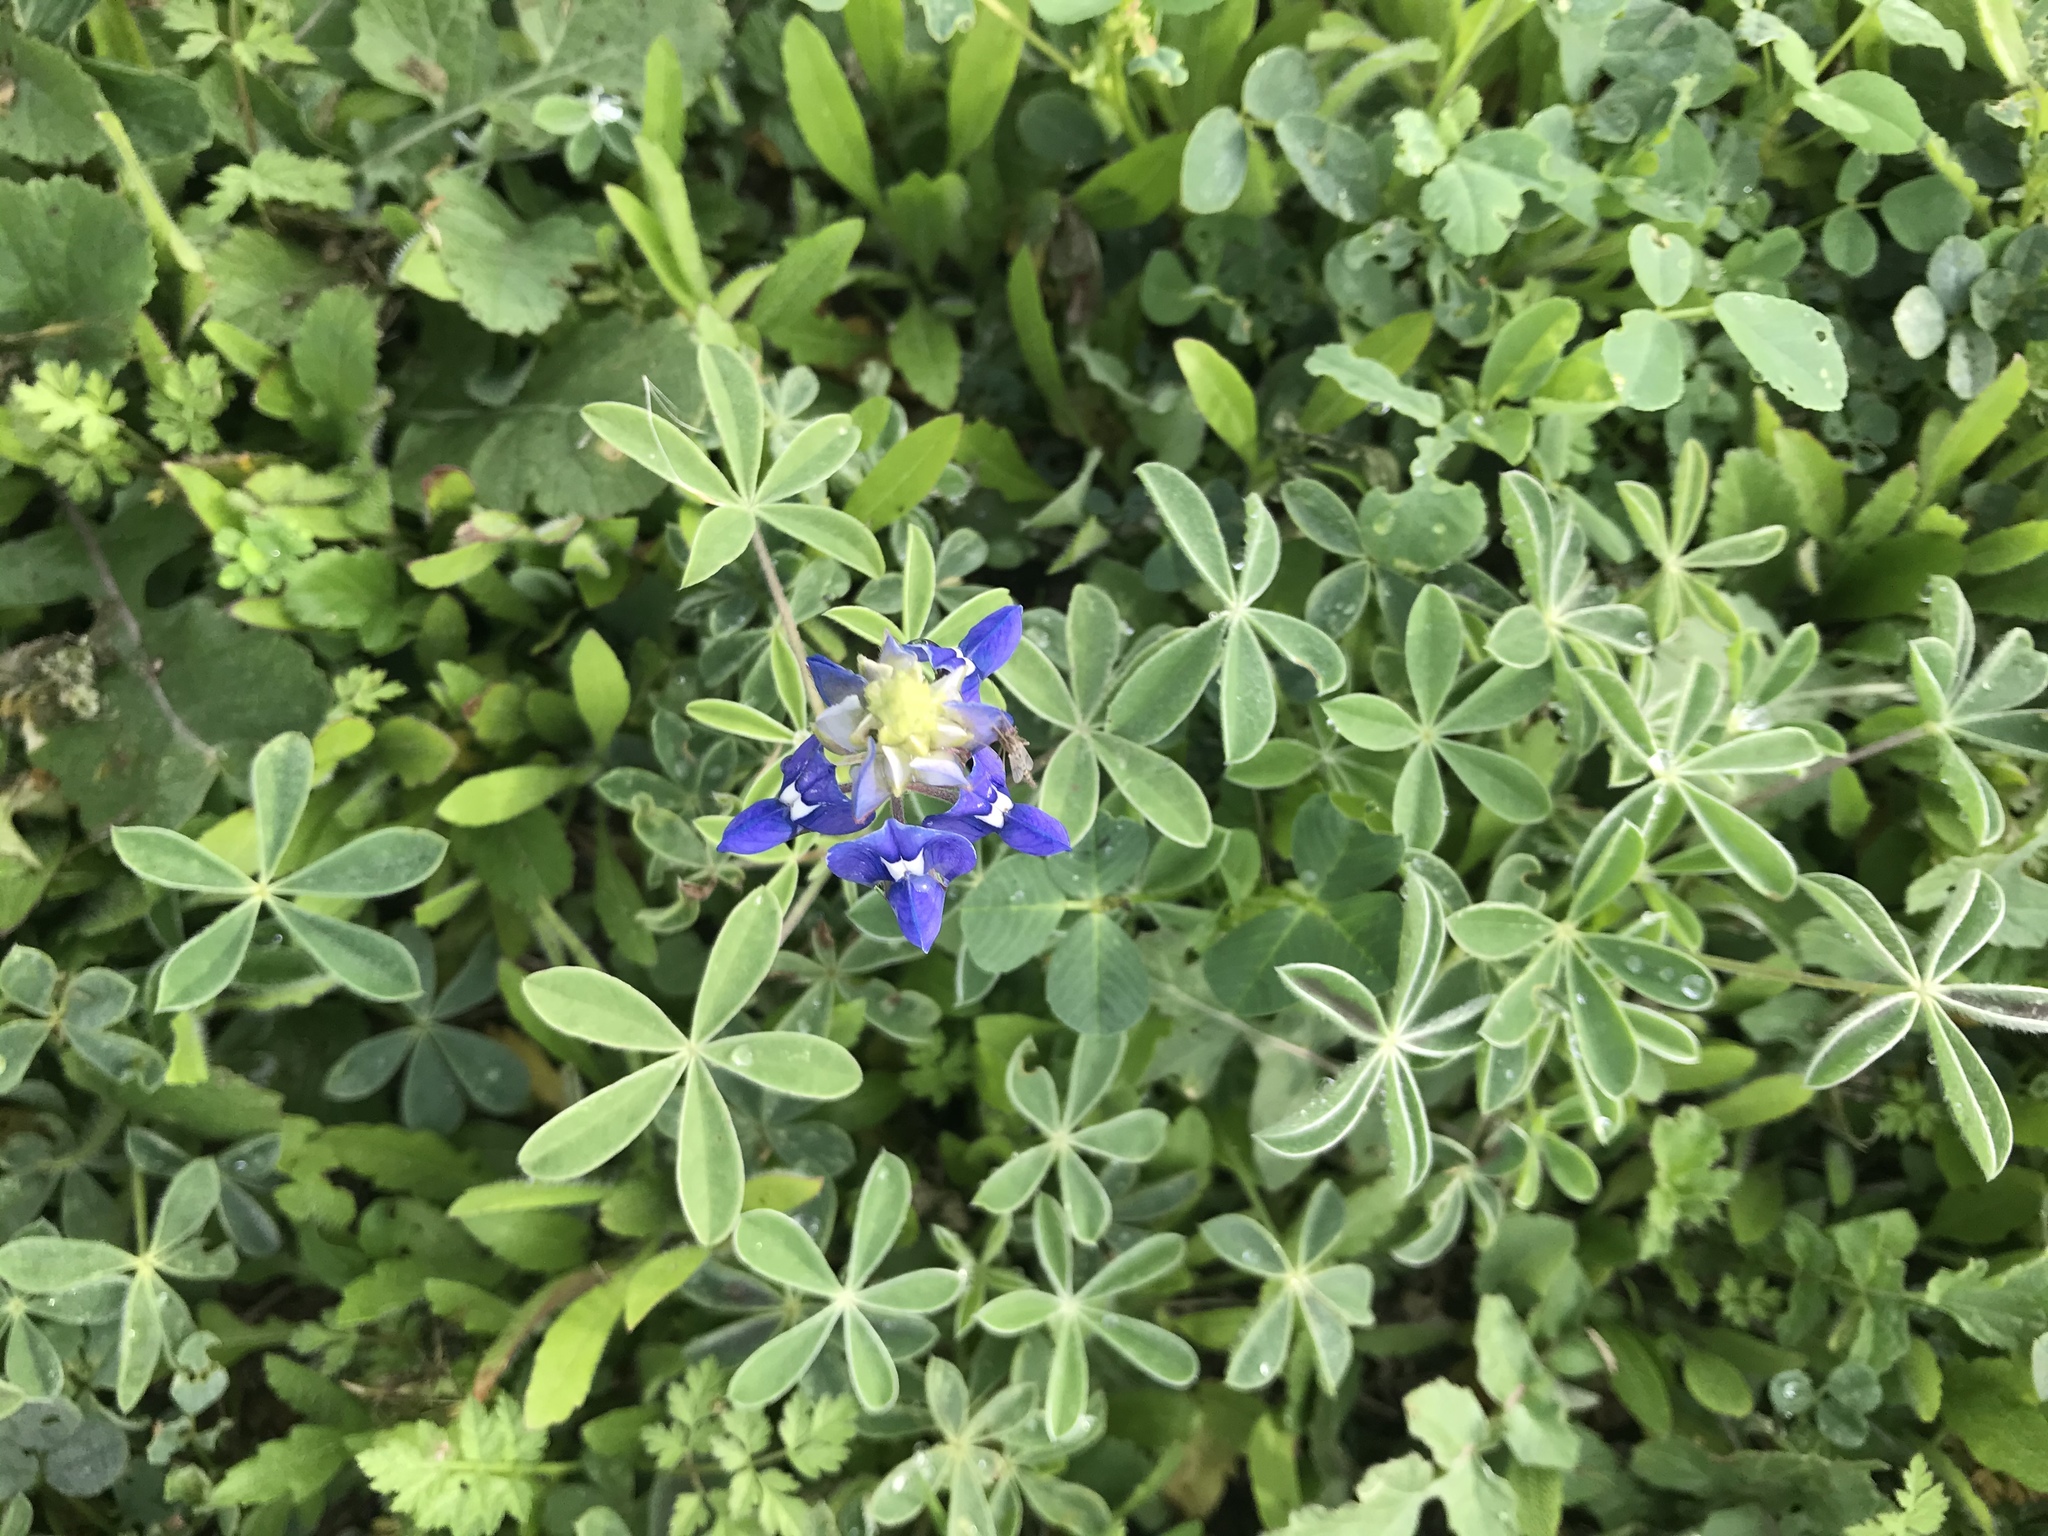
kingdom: Plantae
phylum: Tracheophyta
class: Magnoliopsida
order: Fabales
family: Fabaceae
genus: Lupinus
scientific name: Lupinus texensis
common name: Texas bluebonnet
